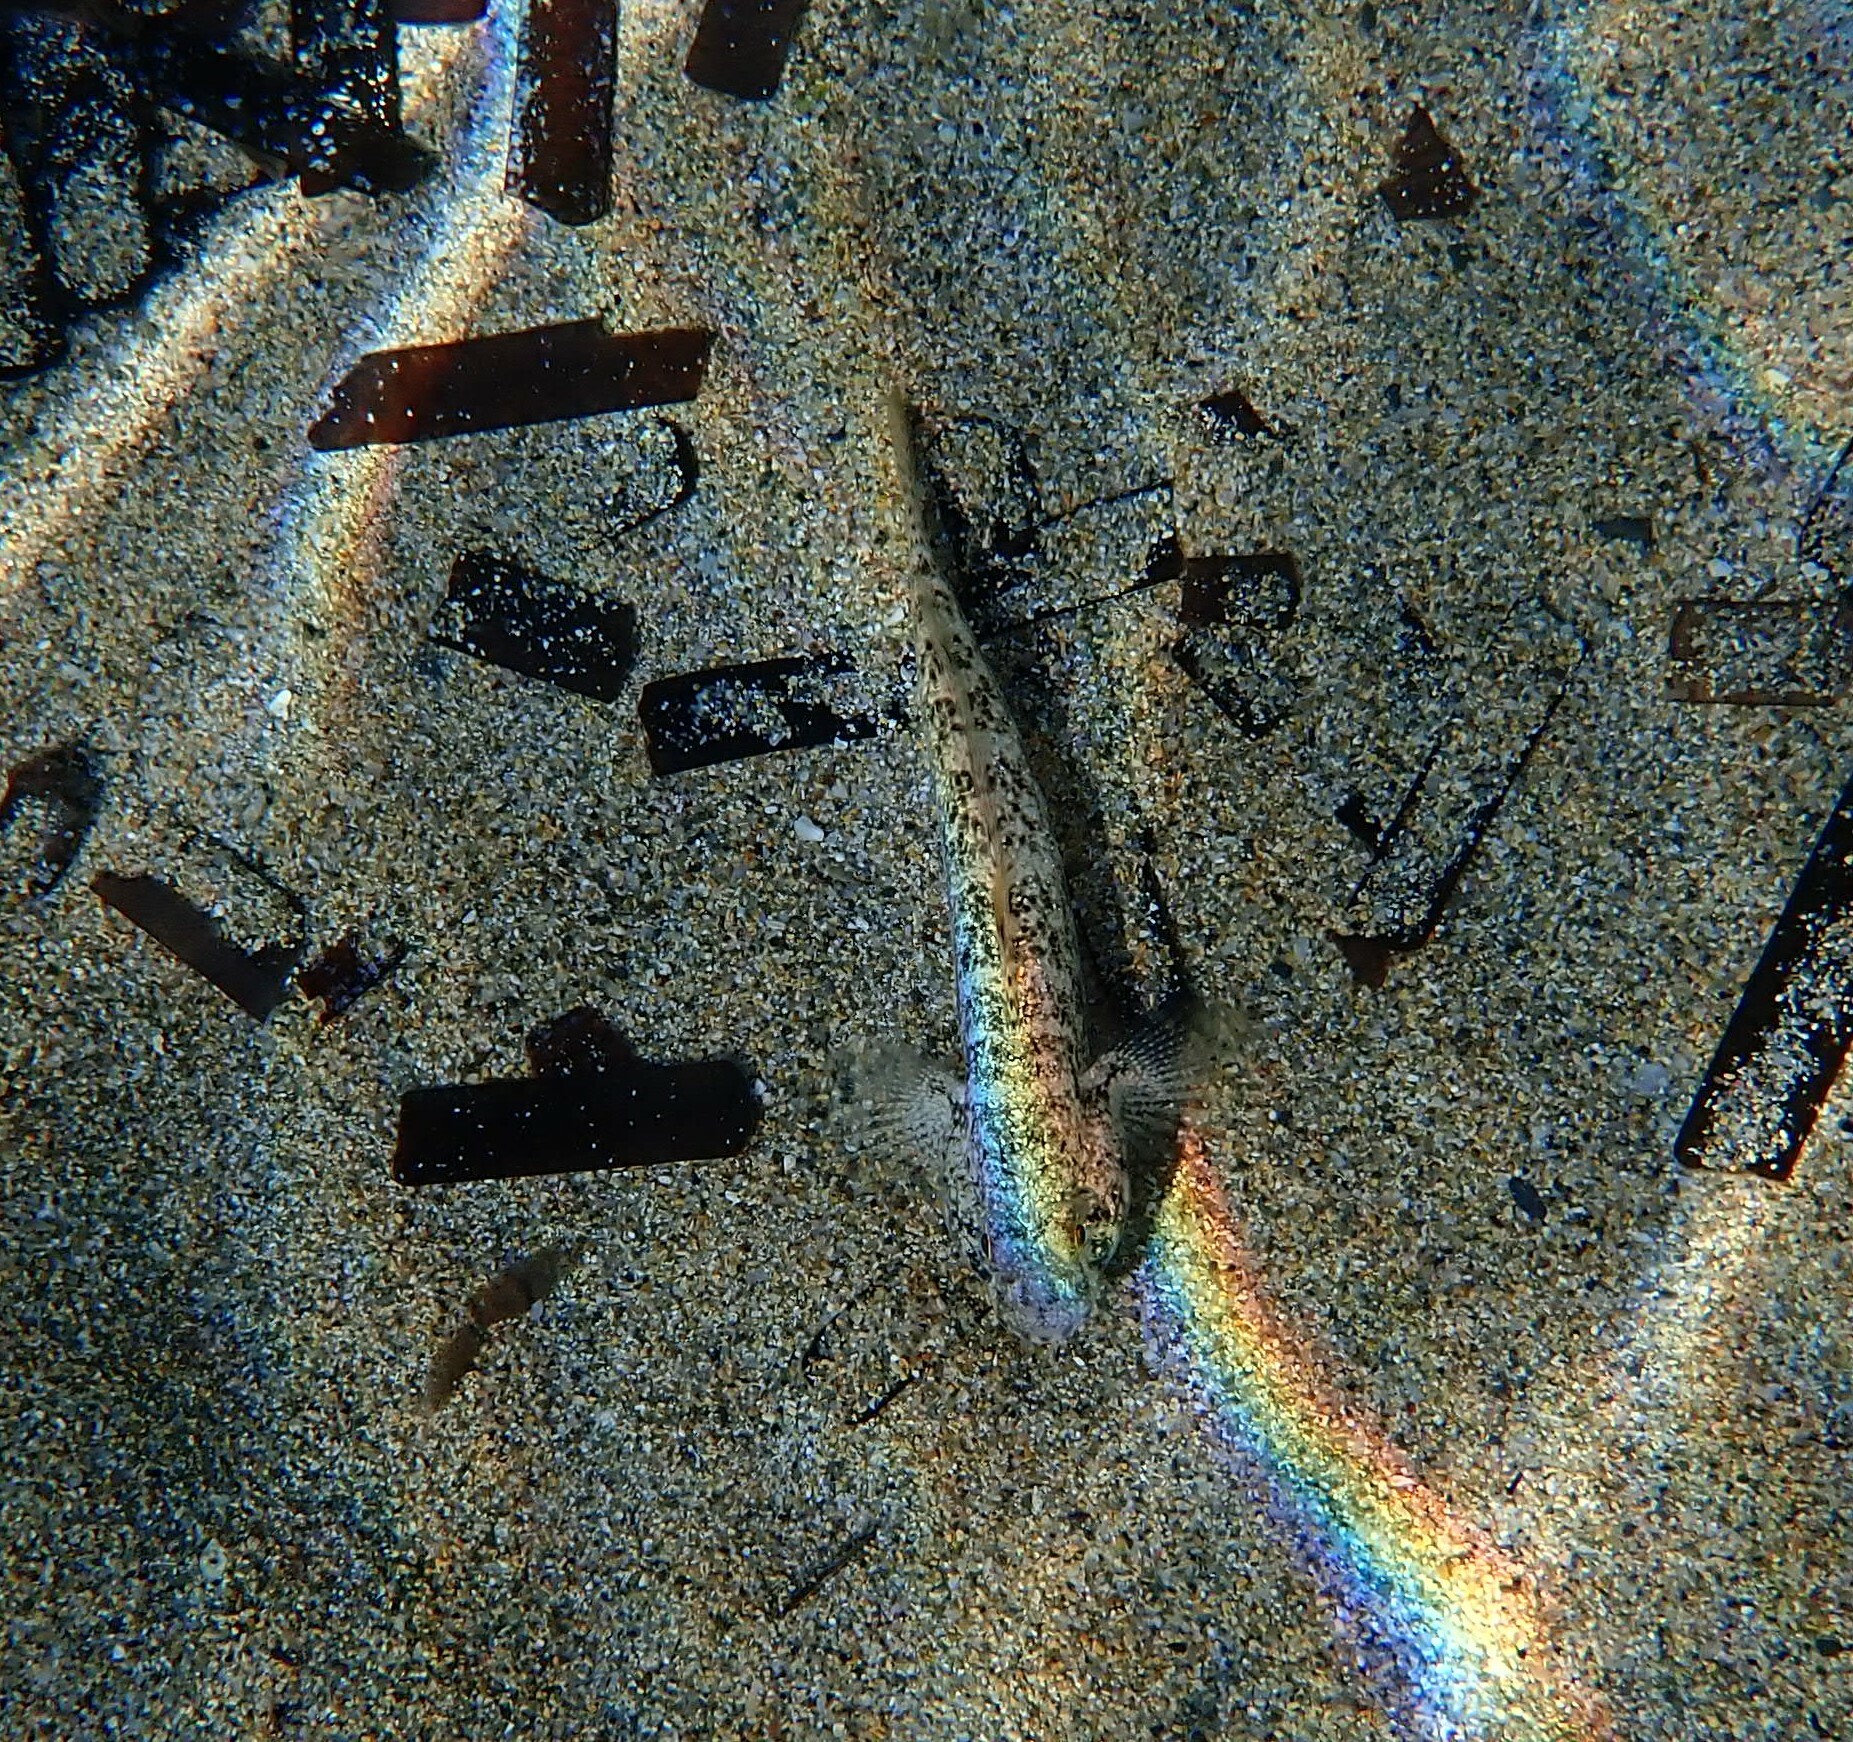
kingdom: Animalia
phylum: Chordata
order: Perciformes
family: Gobiidae
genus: Gobius
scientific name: Gobius niger
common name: Black goby
